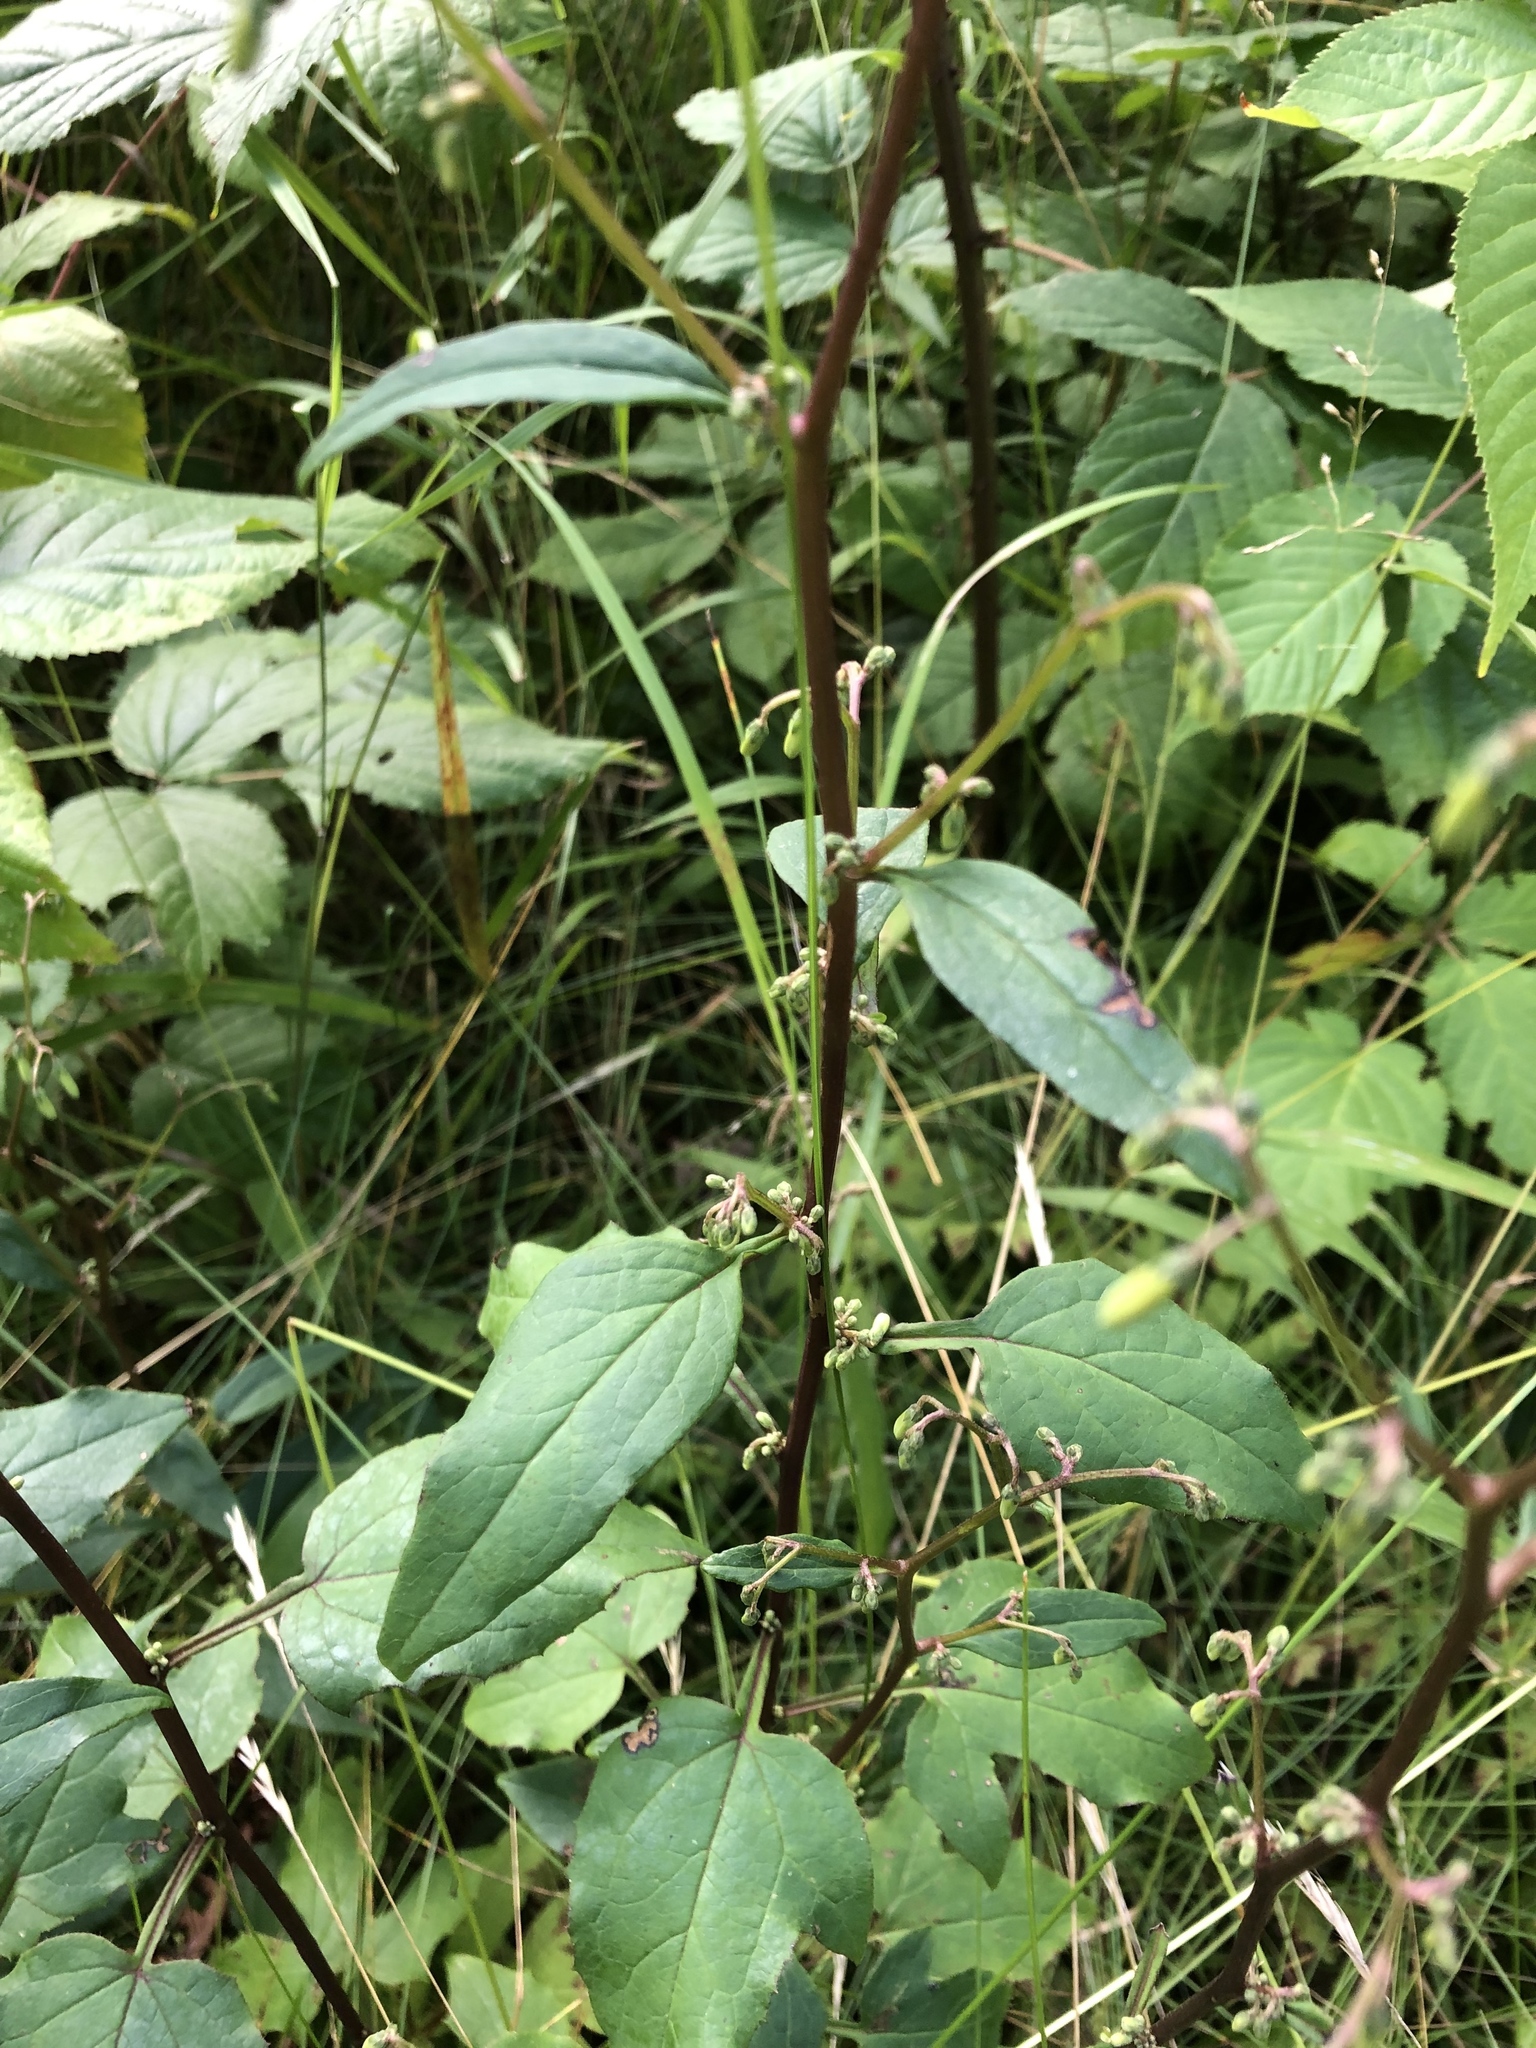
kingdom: Plantae
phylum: Tracheophyta
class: Magnoliopsida
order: Asterales
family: Asteraceae
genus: Nabalus
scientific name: Nabalus altissima
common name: Tall rattlesnakeroot
